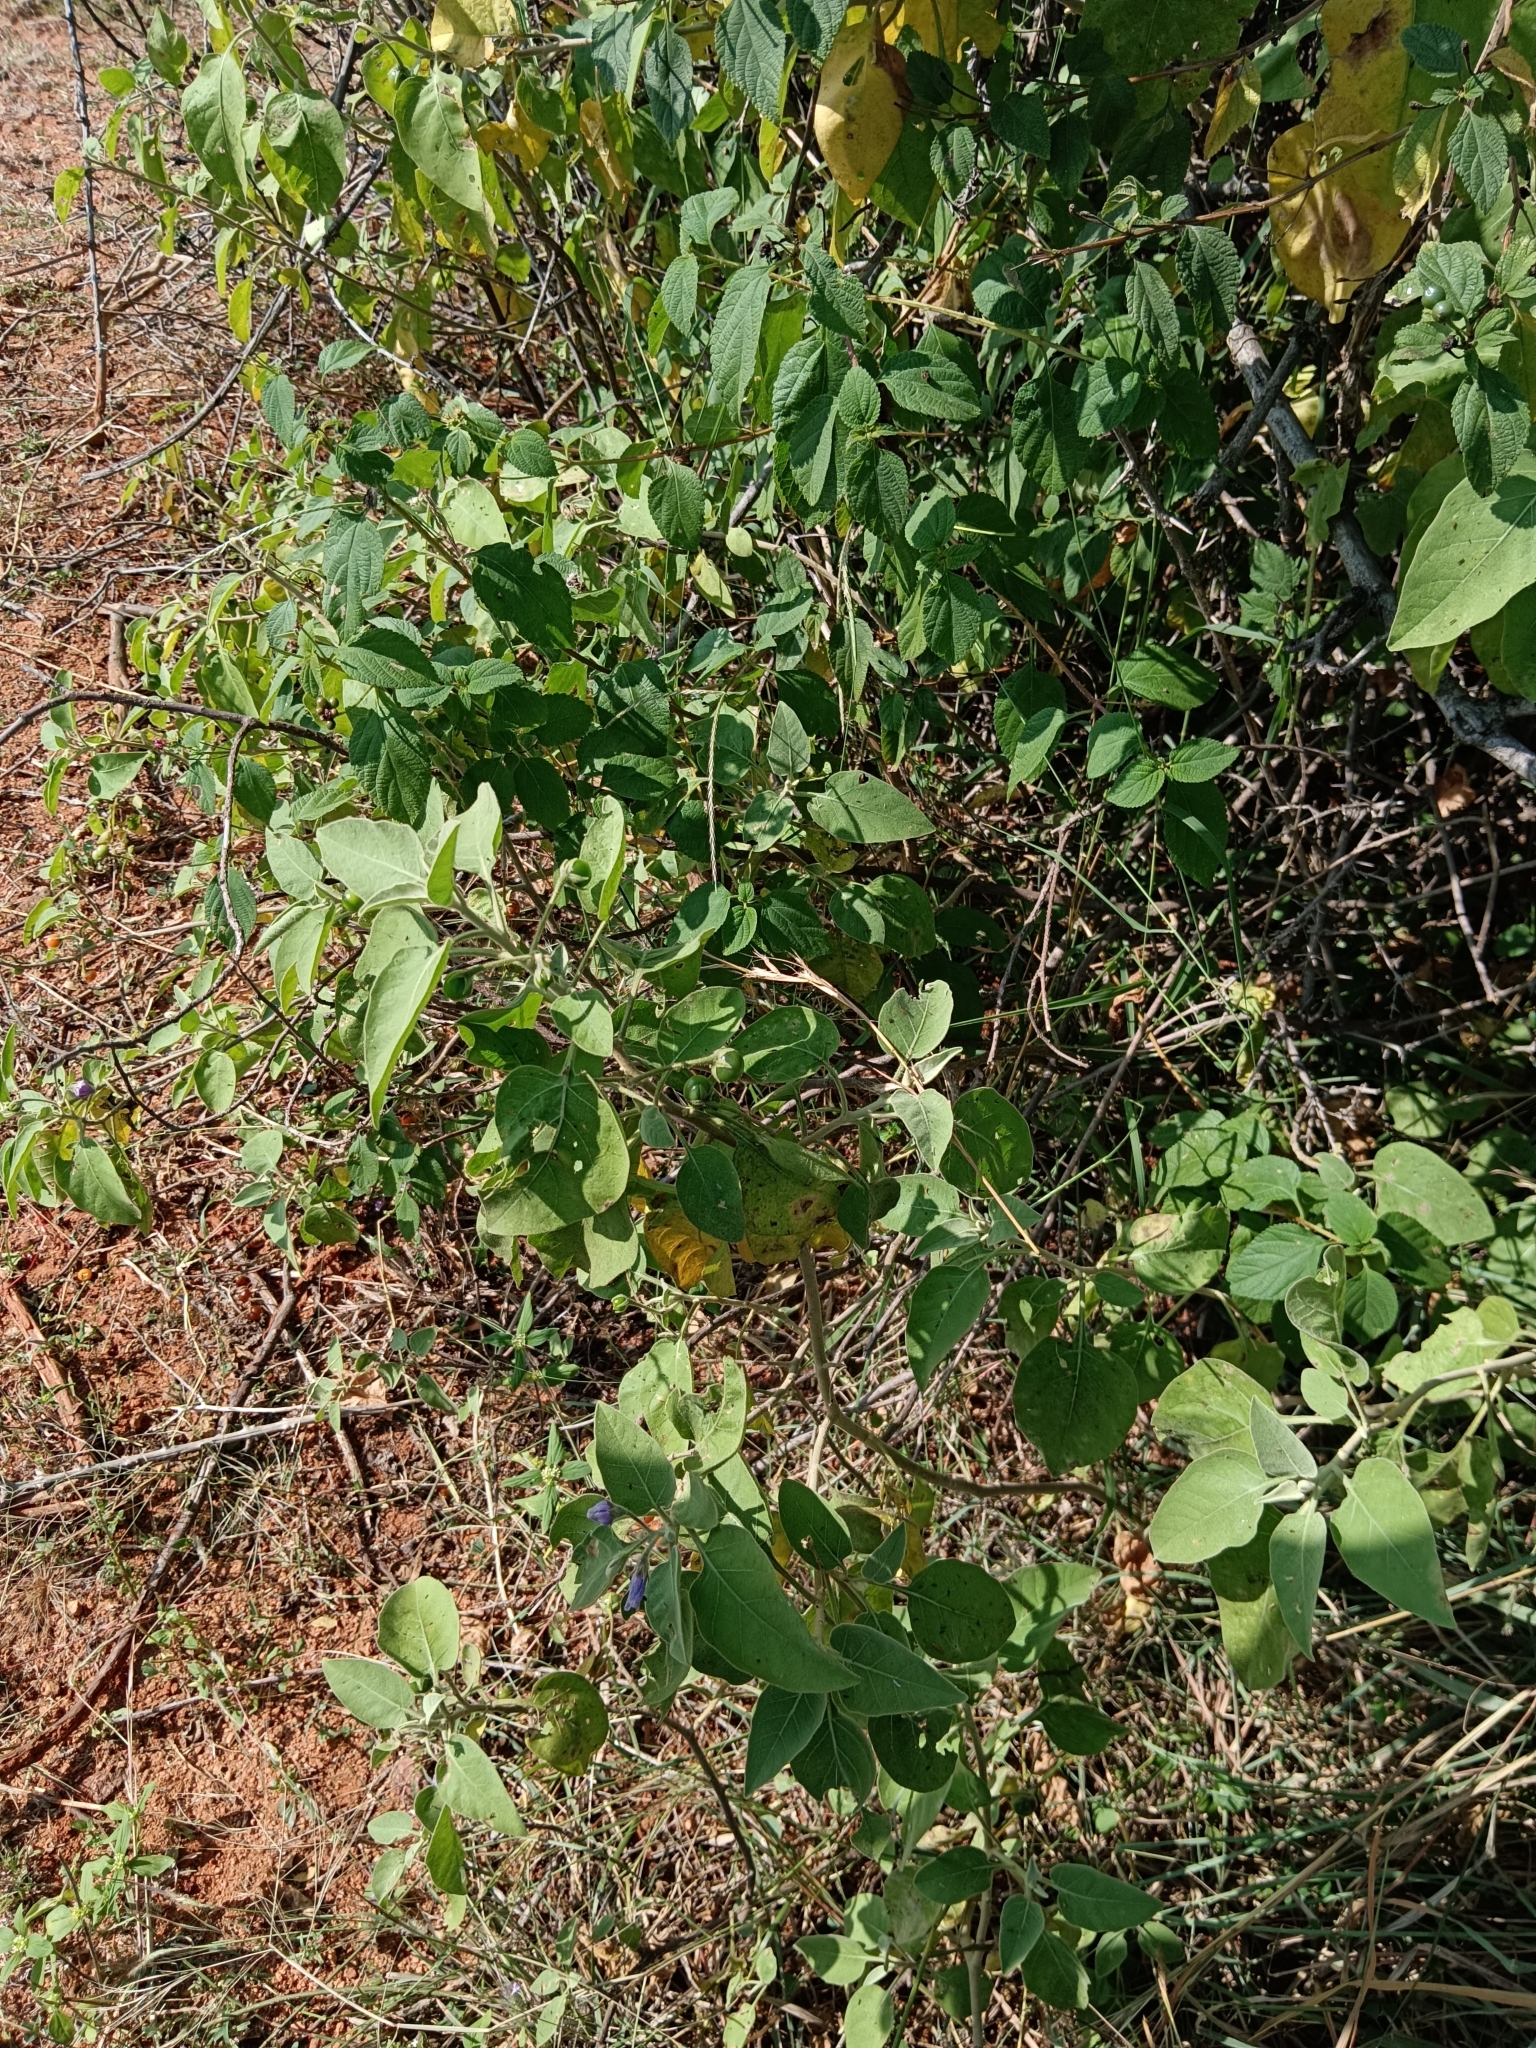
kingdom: Plantae
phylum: Tracheophyta
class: Magnoliopsida
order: Solanales
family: Solanaceae
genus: Solanum
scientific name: Solanum pubescens
